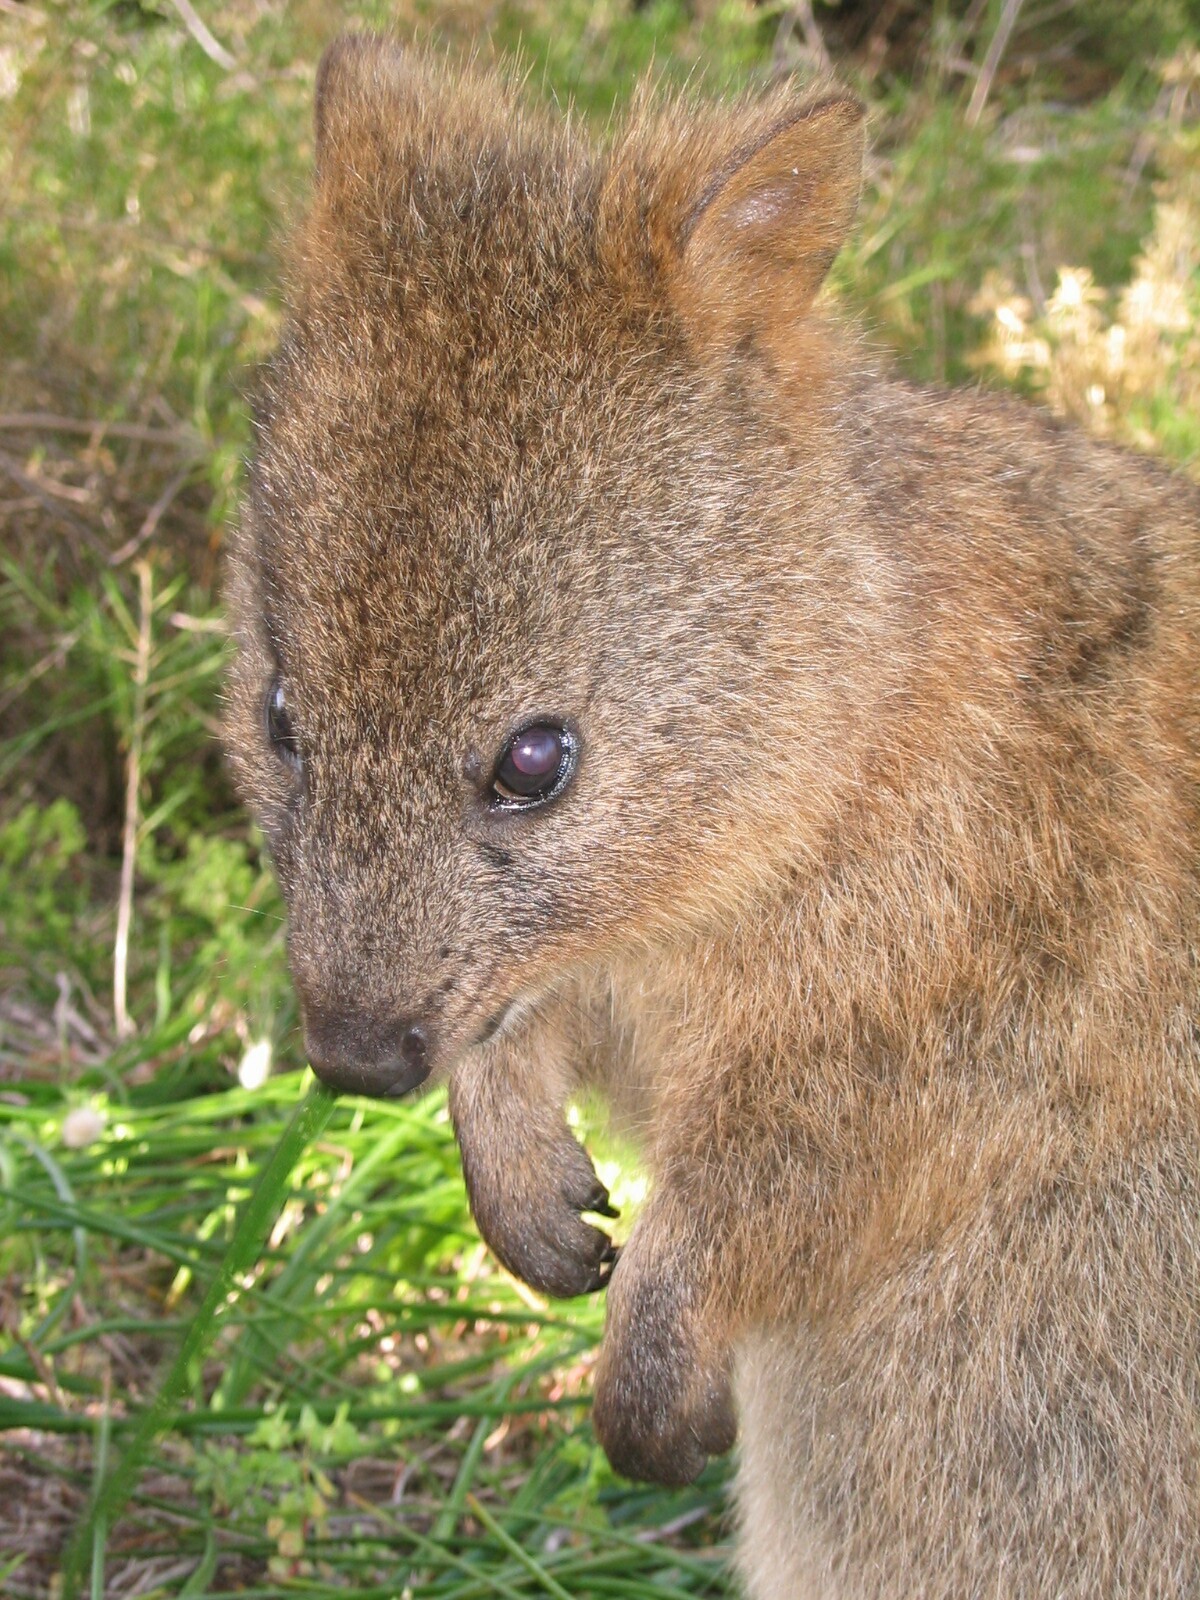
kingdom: Animalia
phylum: Chordata
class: Mammalia
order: Diprotodontia
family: Macropodidae
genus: Setonix
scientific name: Setonix brachyurus
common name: Quokka
